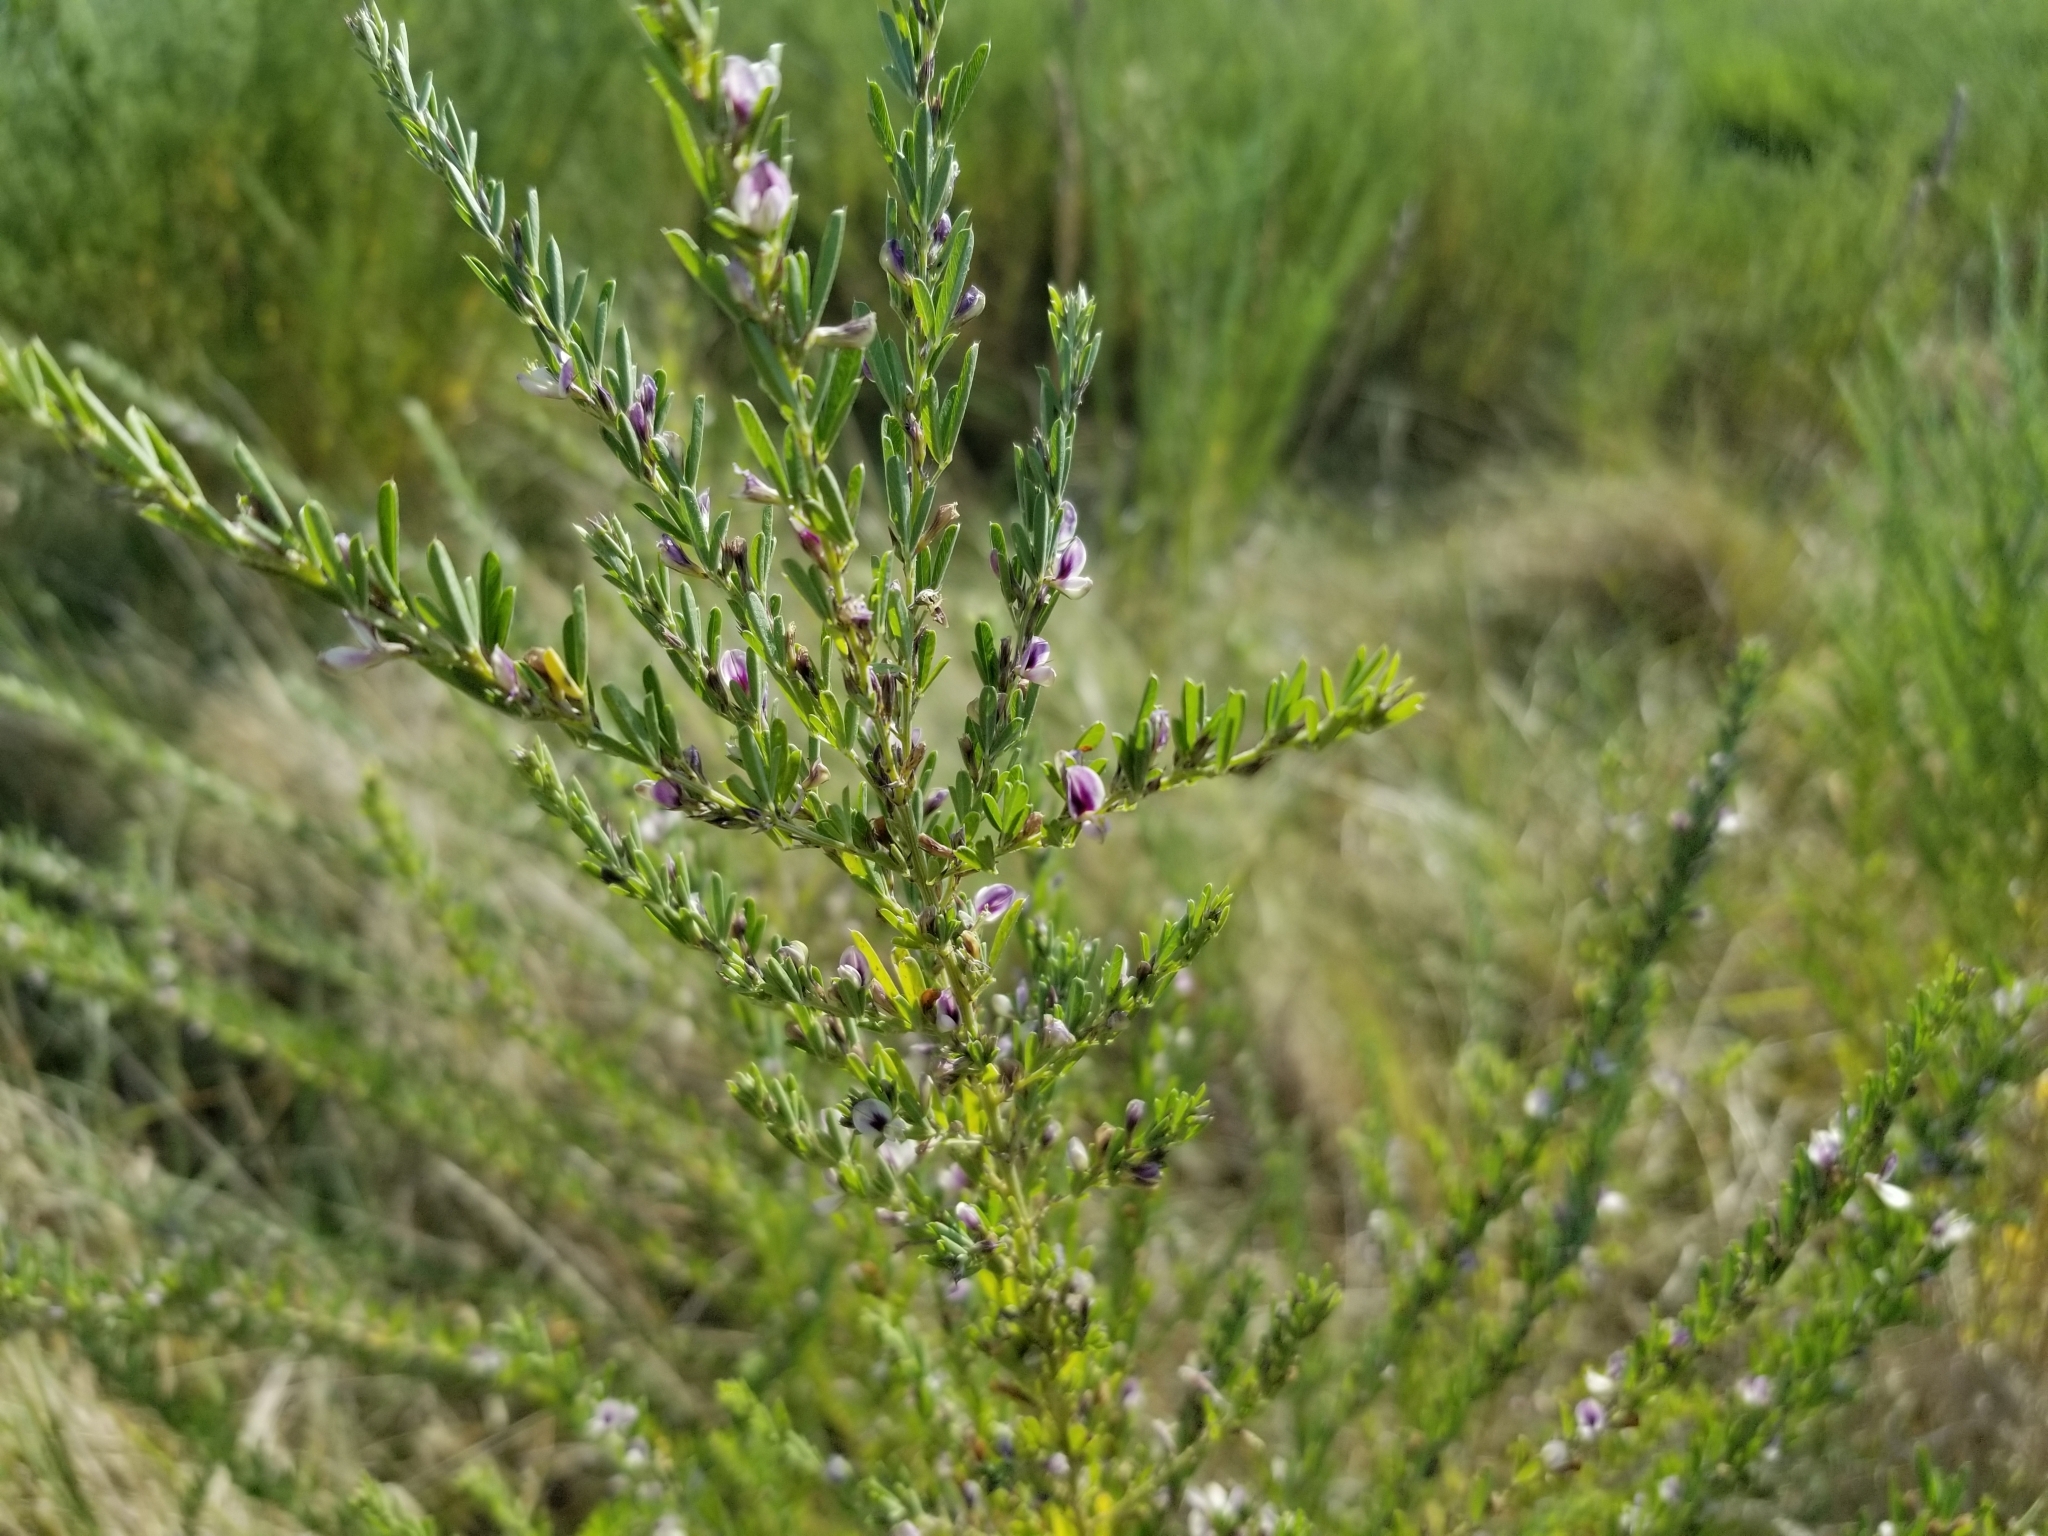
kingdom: Plantae
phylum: Tracheophyta
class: Magnoliopsida
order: Fabales
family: Fabaceae
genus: Lespedeza
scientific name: Lespedeza cuneata
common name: Chinese bush-clover
